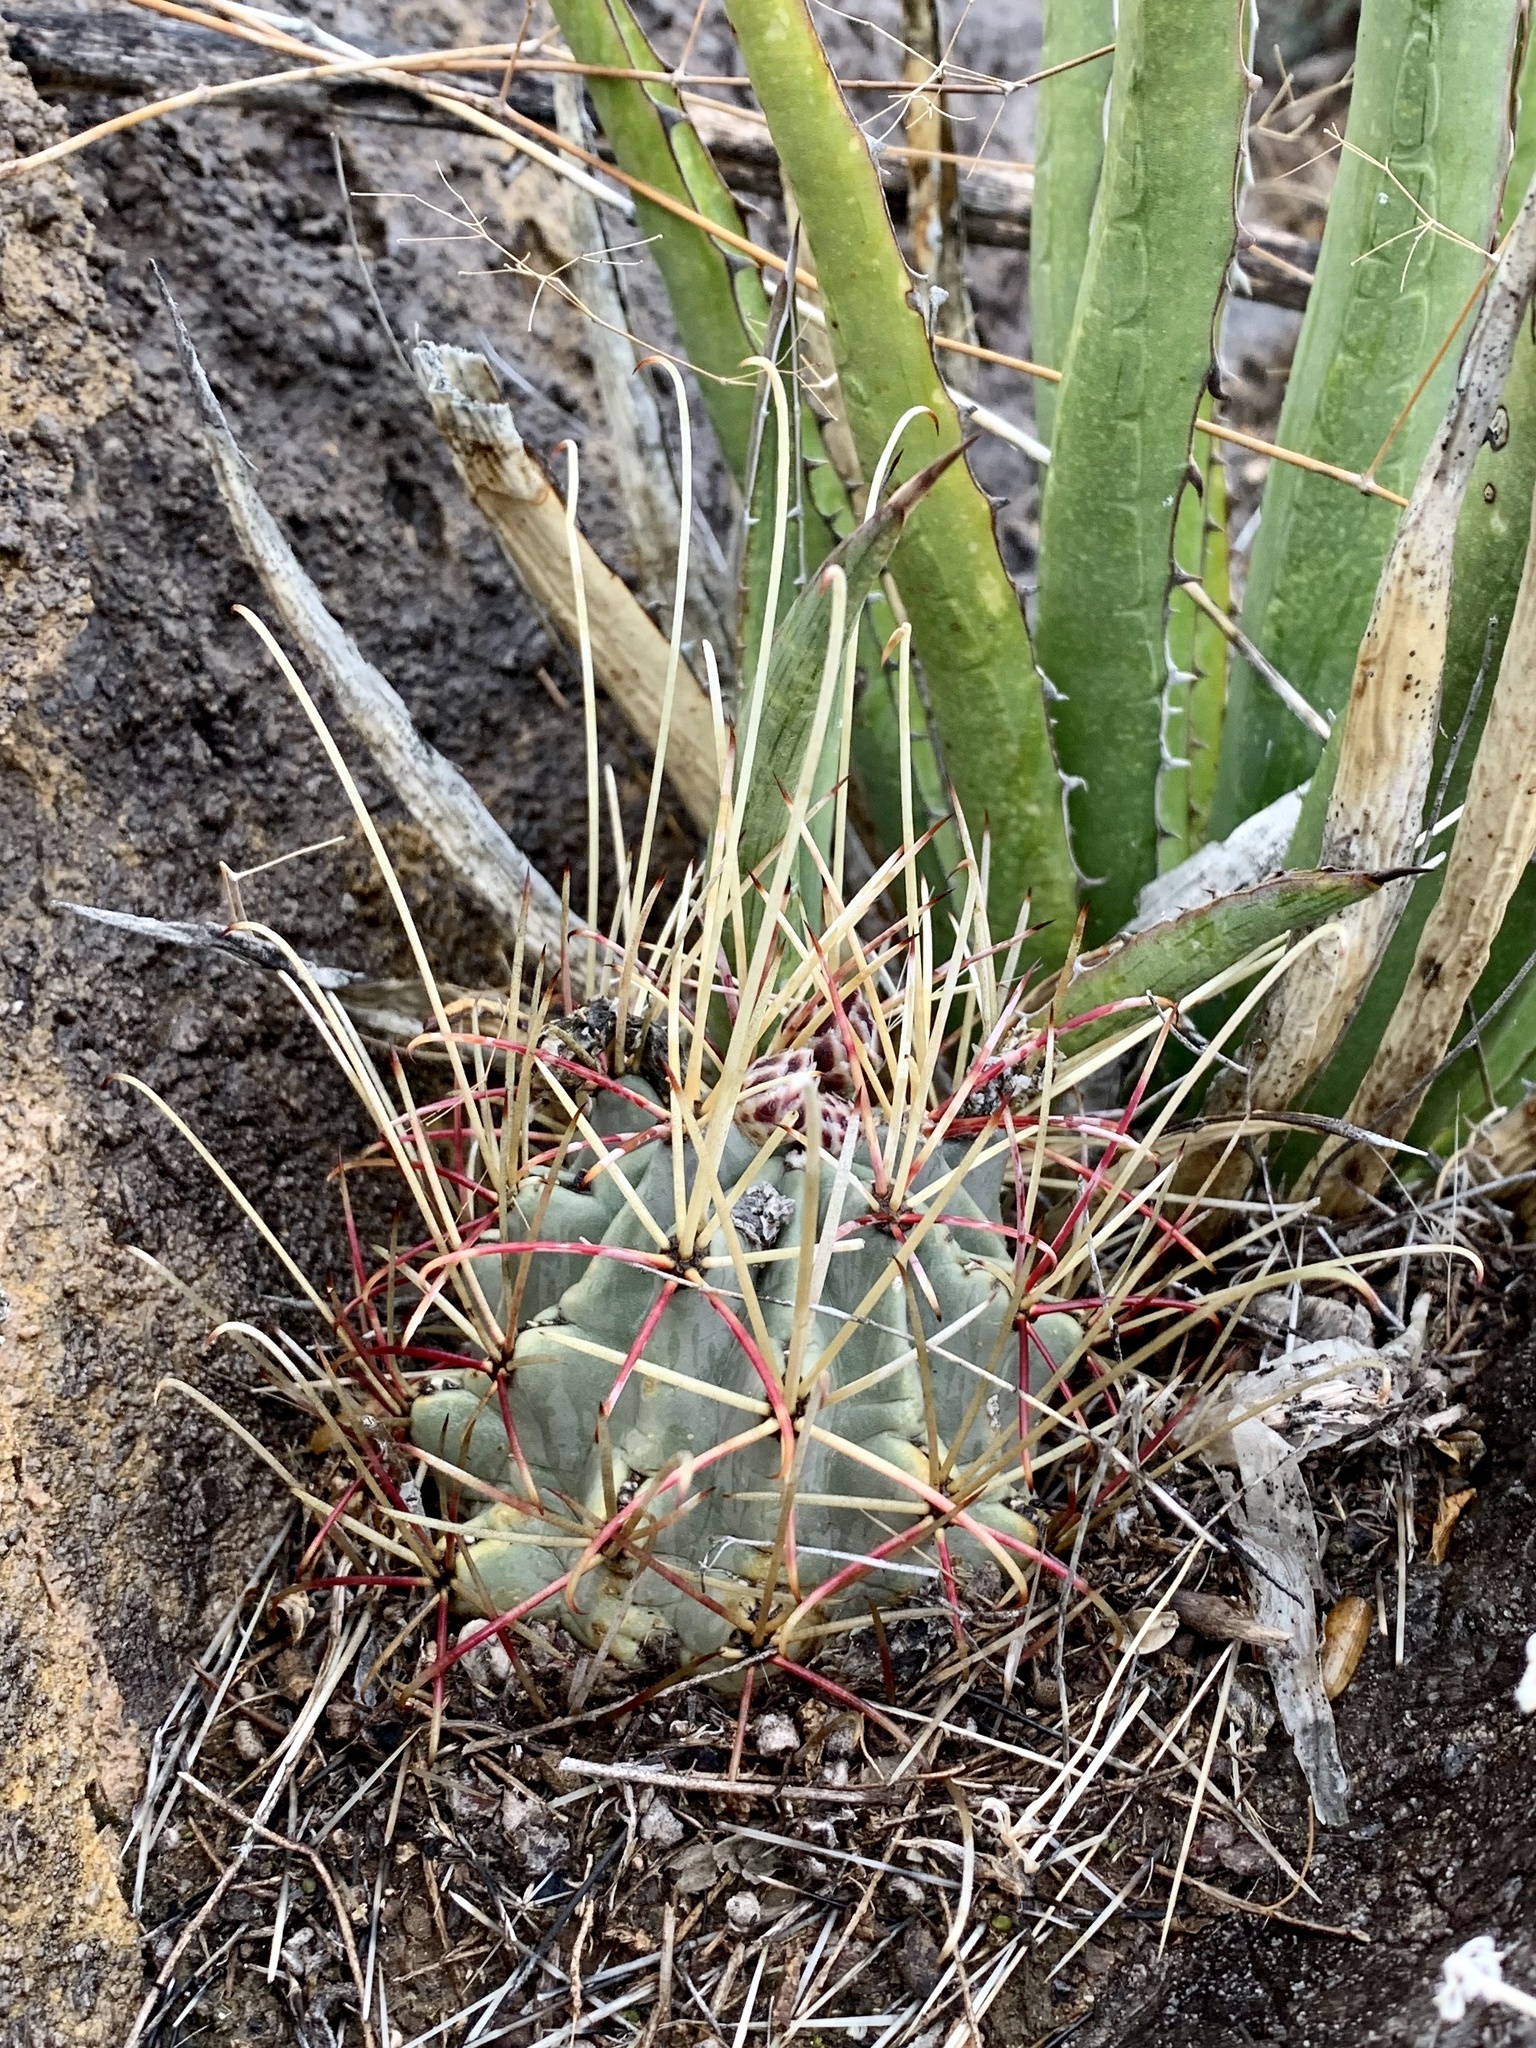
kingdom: Plantae
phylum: Tracheophyta
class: Magnoliopsida
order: Caryophyllales
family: Cactaceae
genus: Ferocactus
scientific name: Ferocactus uncinatus
